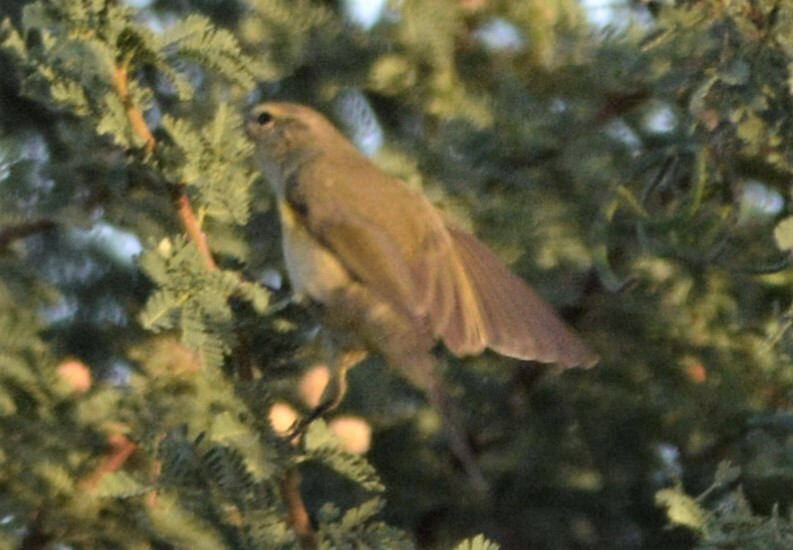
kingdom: Animalia
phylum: Chordata
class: Aves
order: Passeriformes
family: Phylloscopidae
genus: Phylloscopus
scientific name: Phylloscopus collybita
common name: Common chiffchaff
